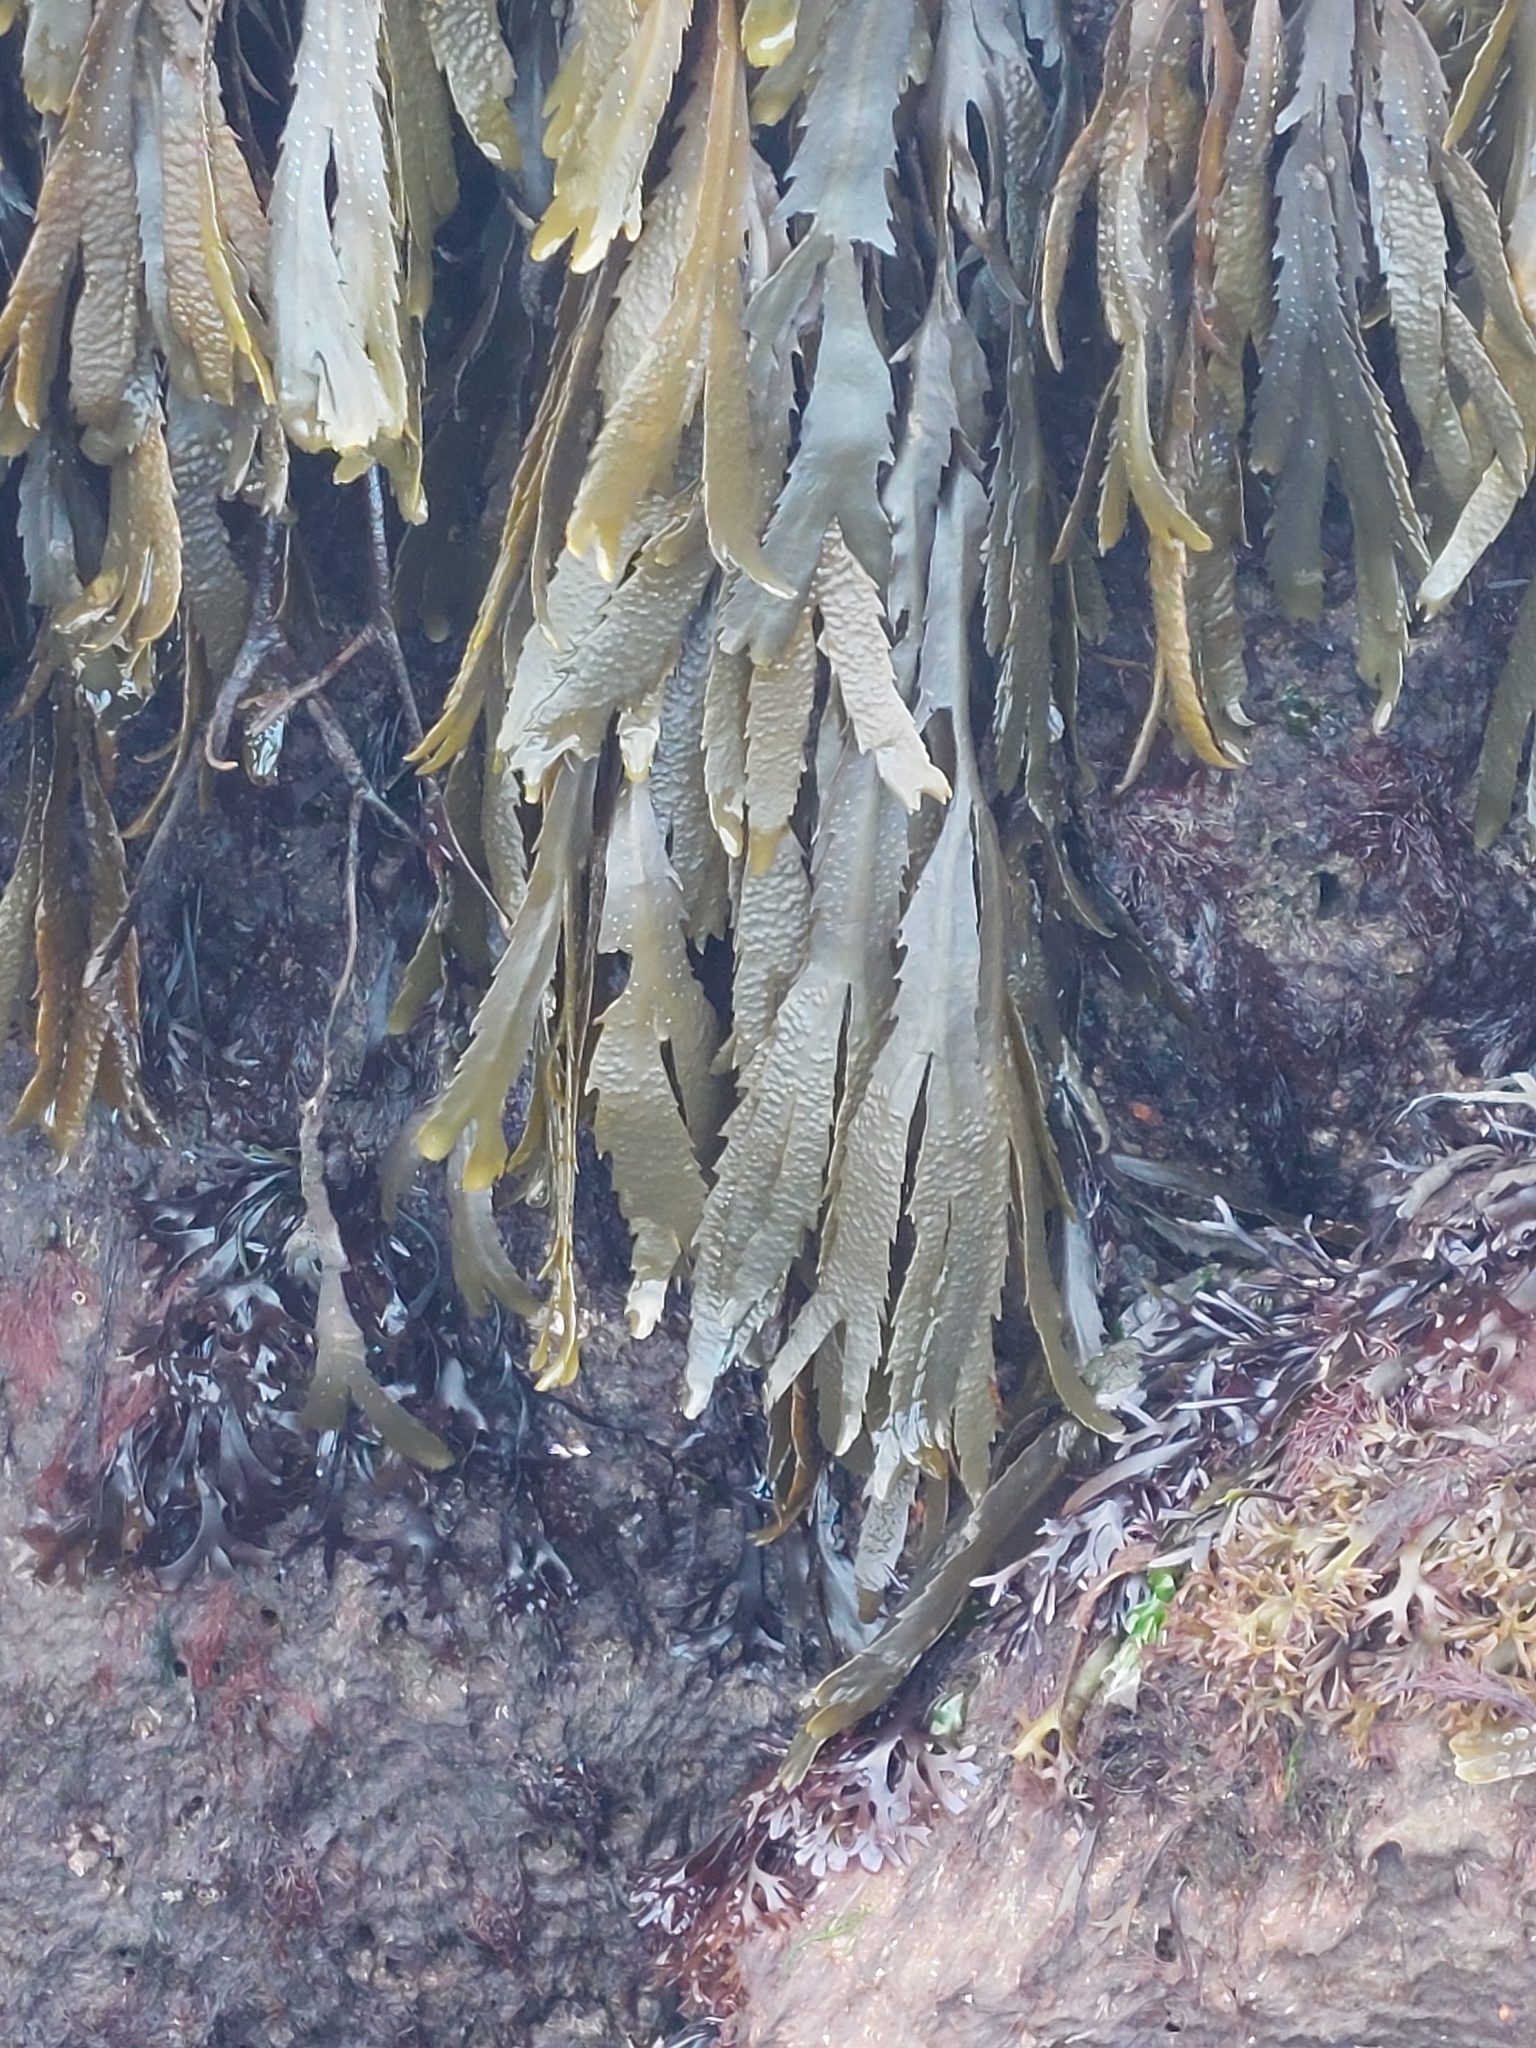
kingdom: Chromista
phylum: Ochrophyta
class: Phaeophyceae
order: Fucales
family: Fucaceae
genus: Fucus
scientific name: Fucus serratus
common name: Toothed wrack
